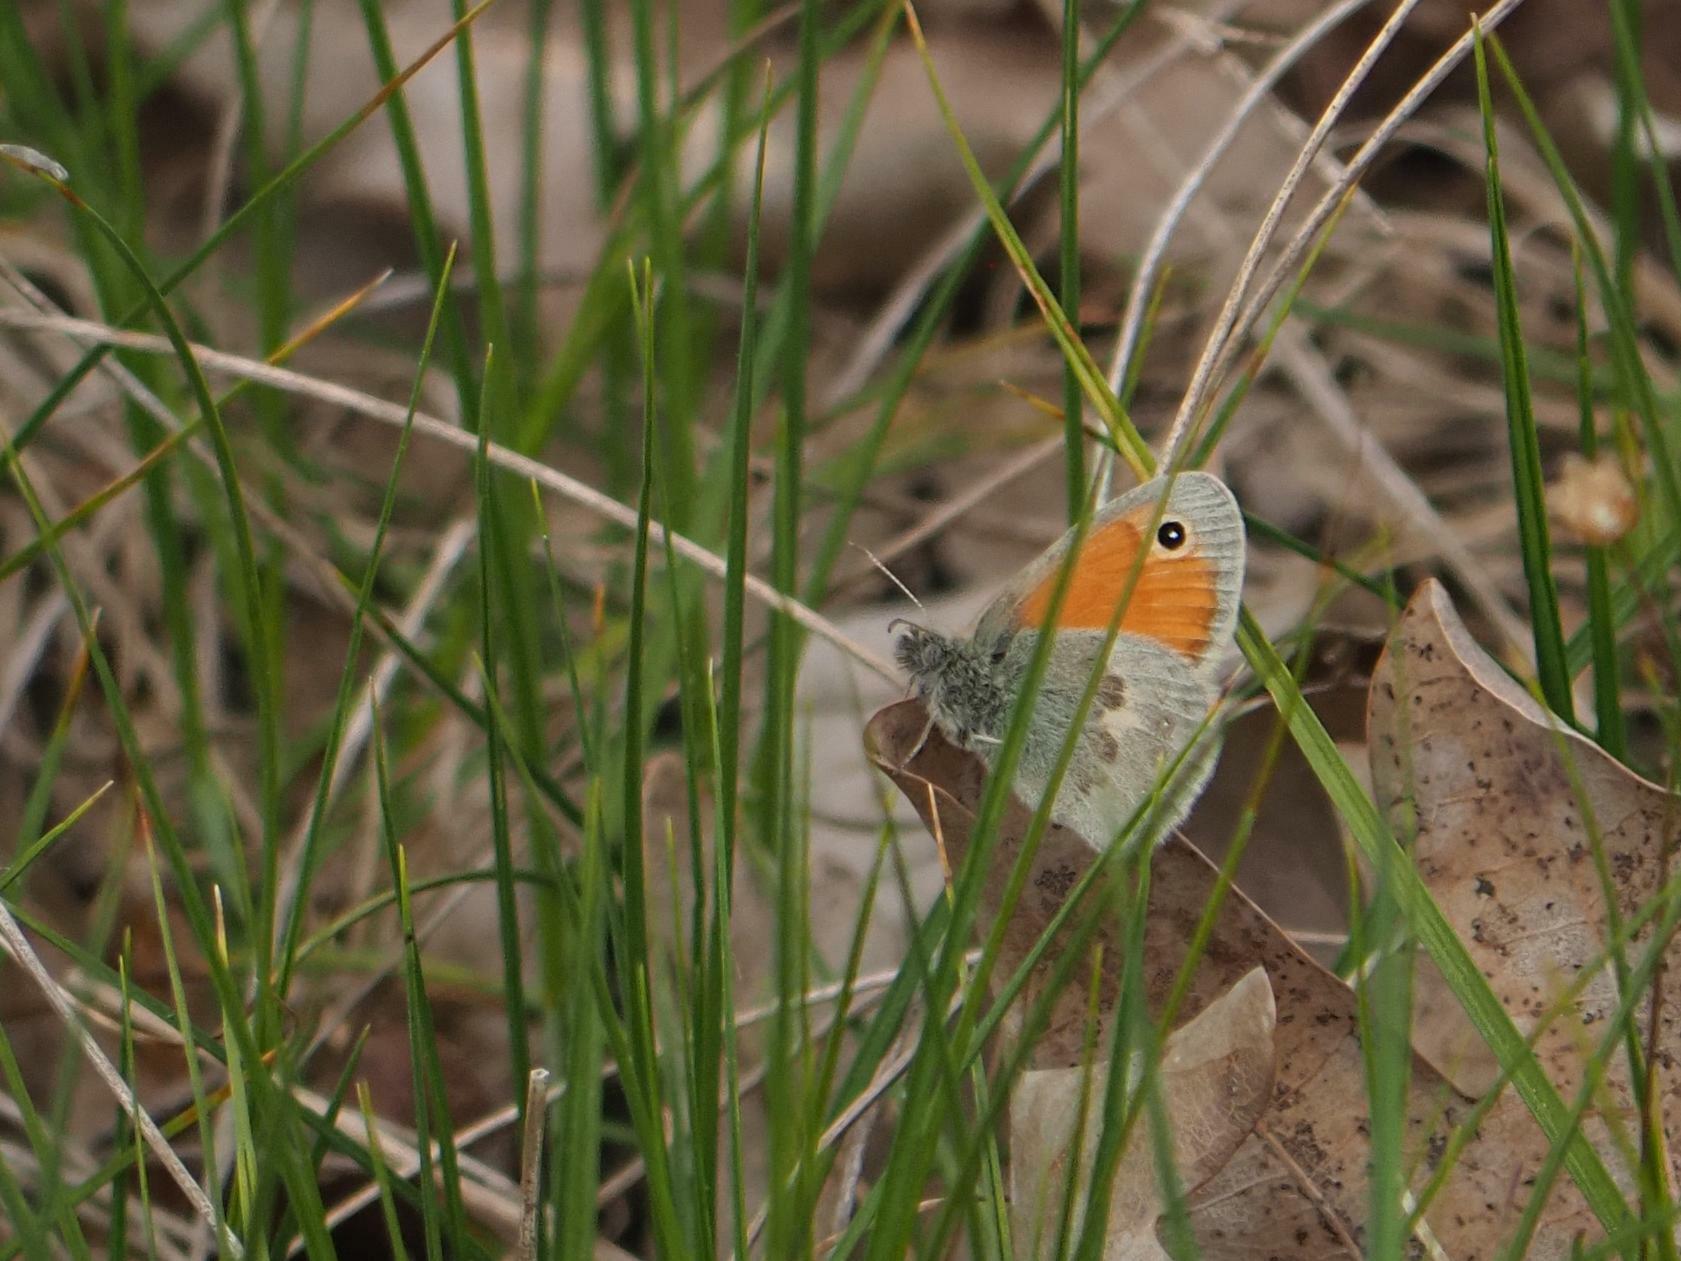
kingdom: Animalia
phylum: Arthropoda
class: Insecta
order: Lepidoptera
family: Nymphalidae
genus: Coenonympha
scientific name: Coenonympha pamphilus
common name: Small heath
